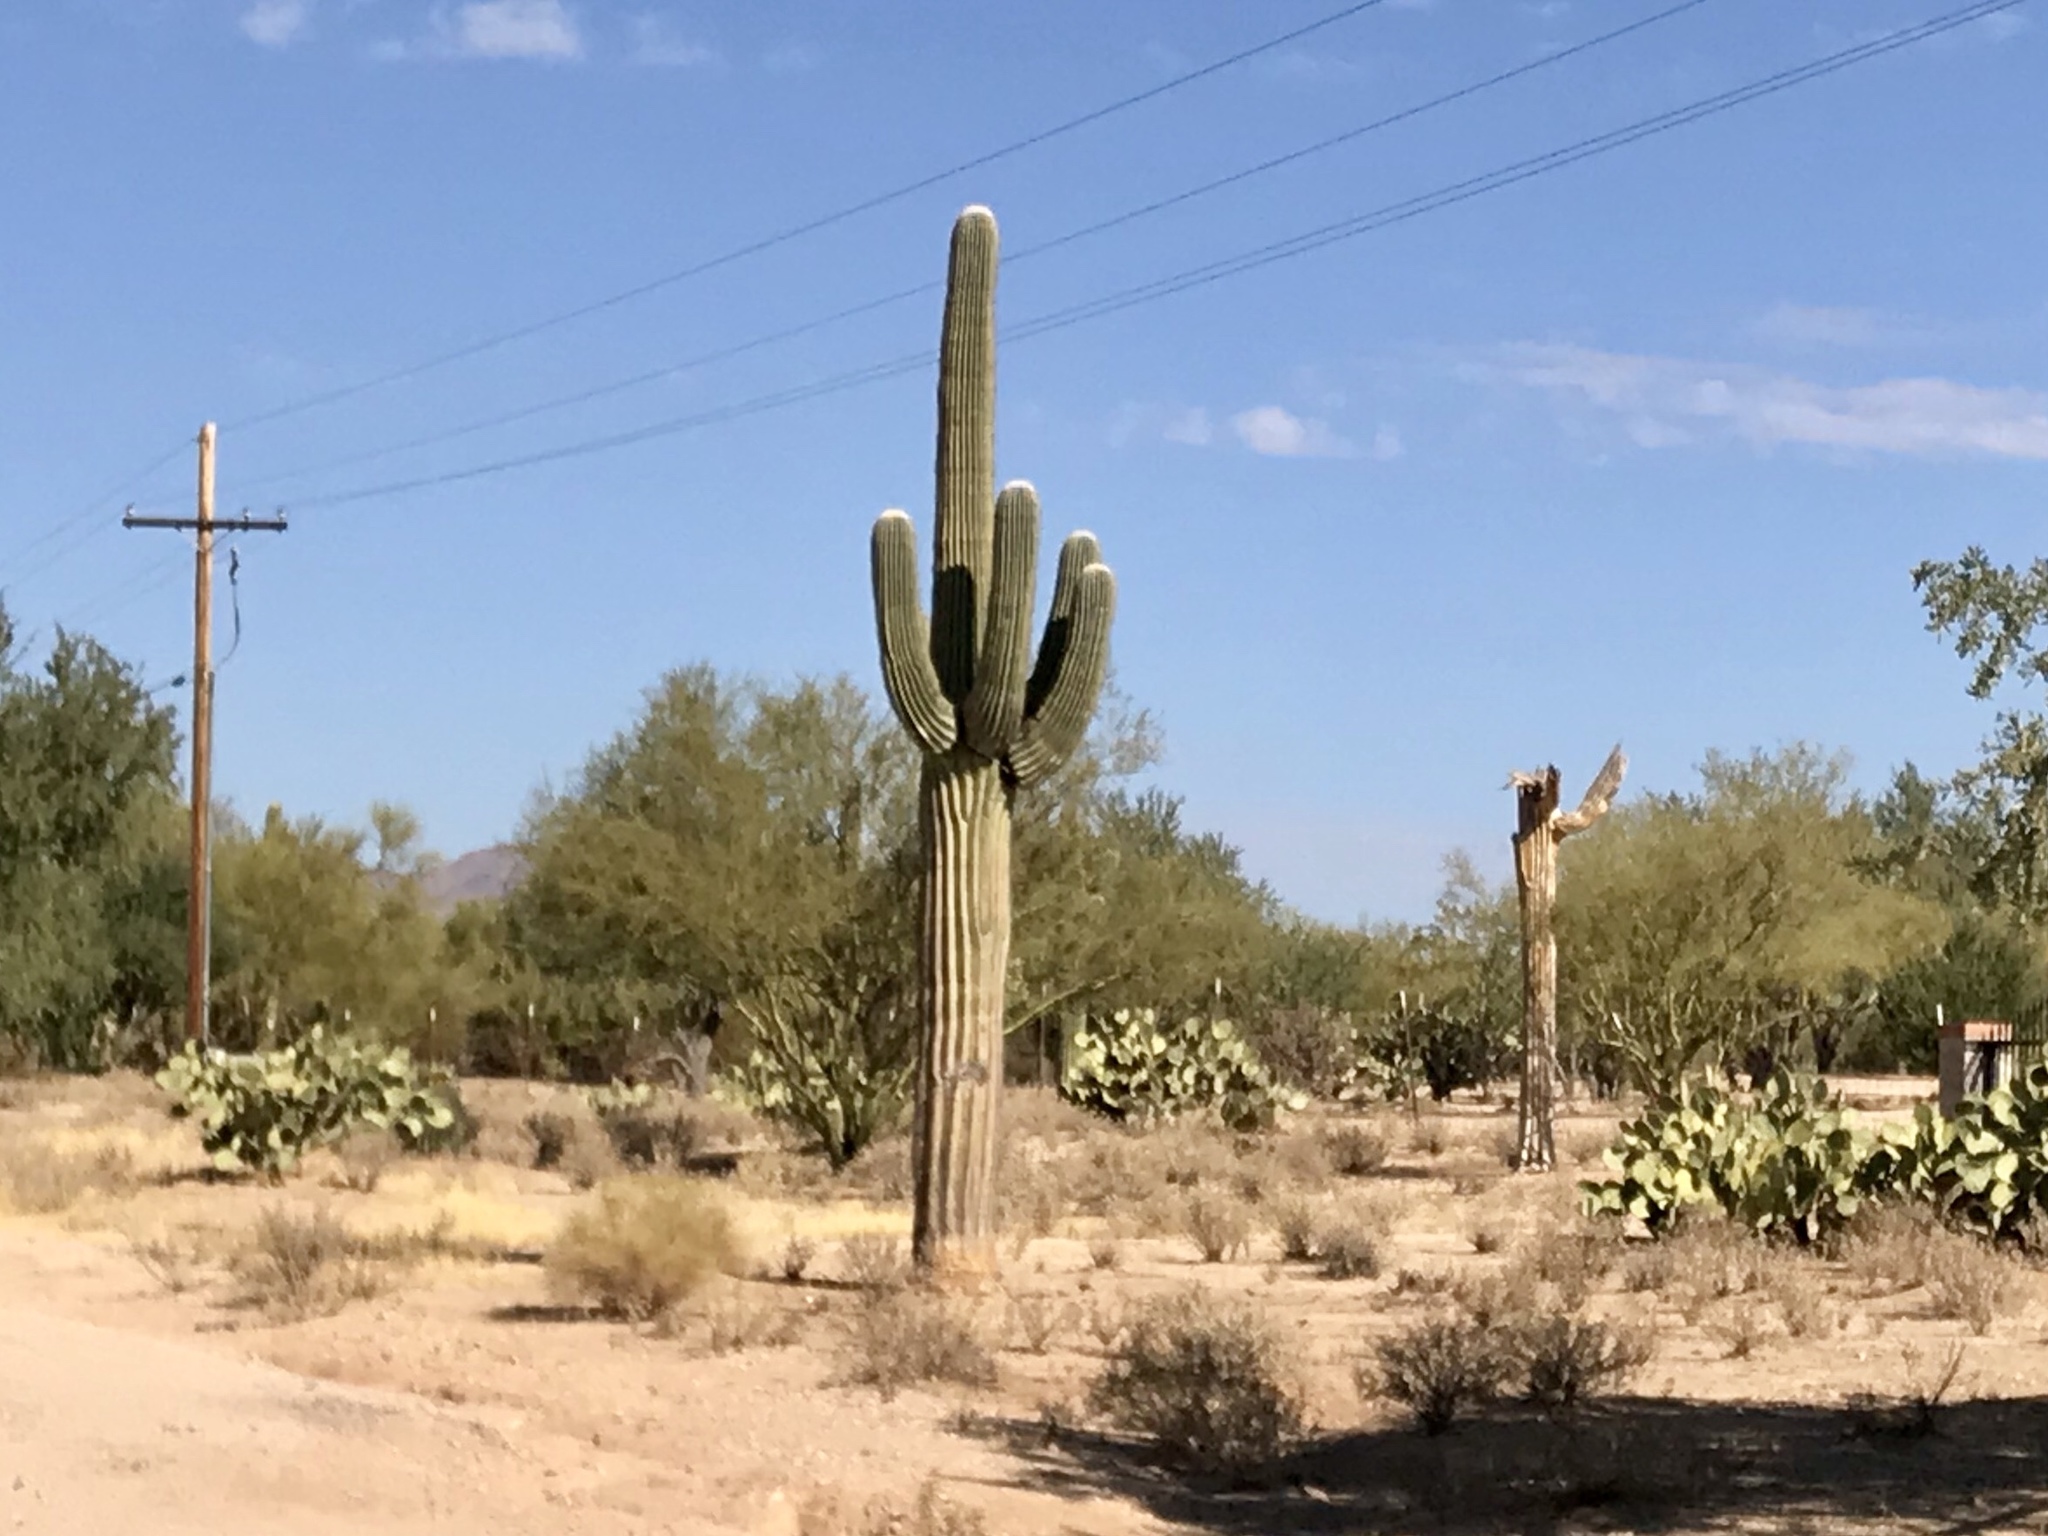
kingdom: Plantae
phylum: Tracheophyta
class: Magnoliopsida
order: Caryophyllales
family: Cactaceae
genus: Carnegiea
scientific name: Carnegiea gigantea
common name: Saguaro
